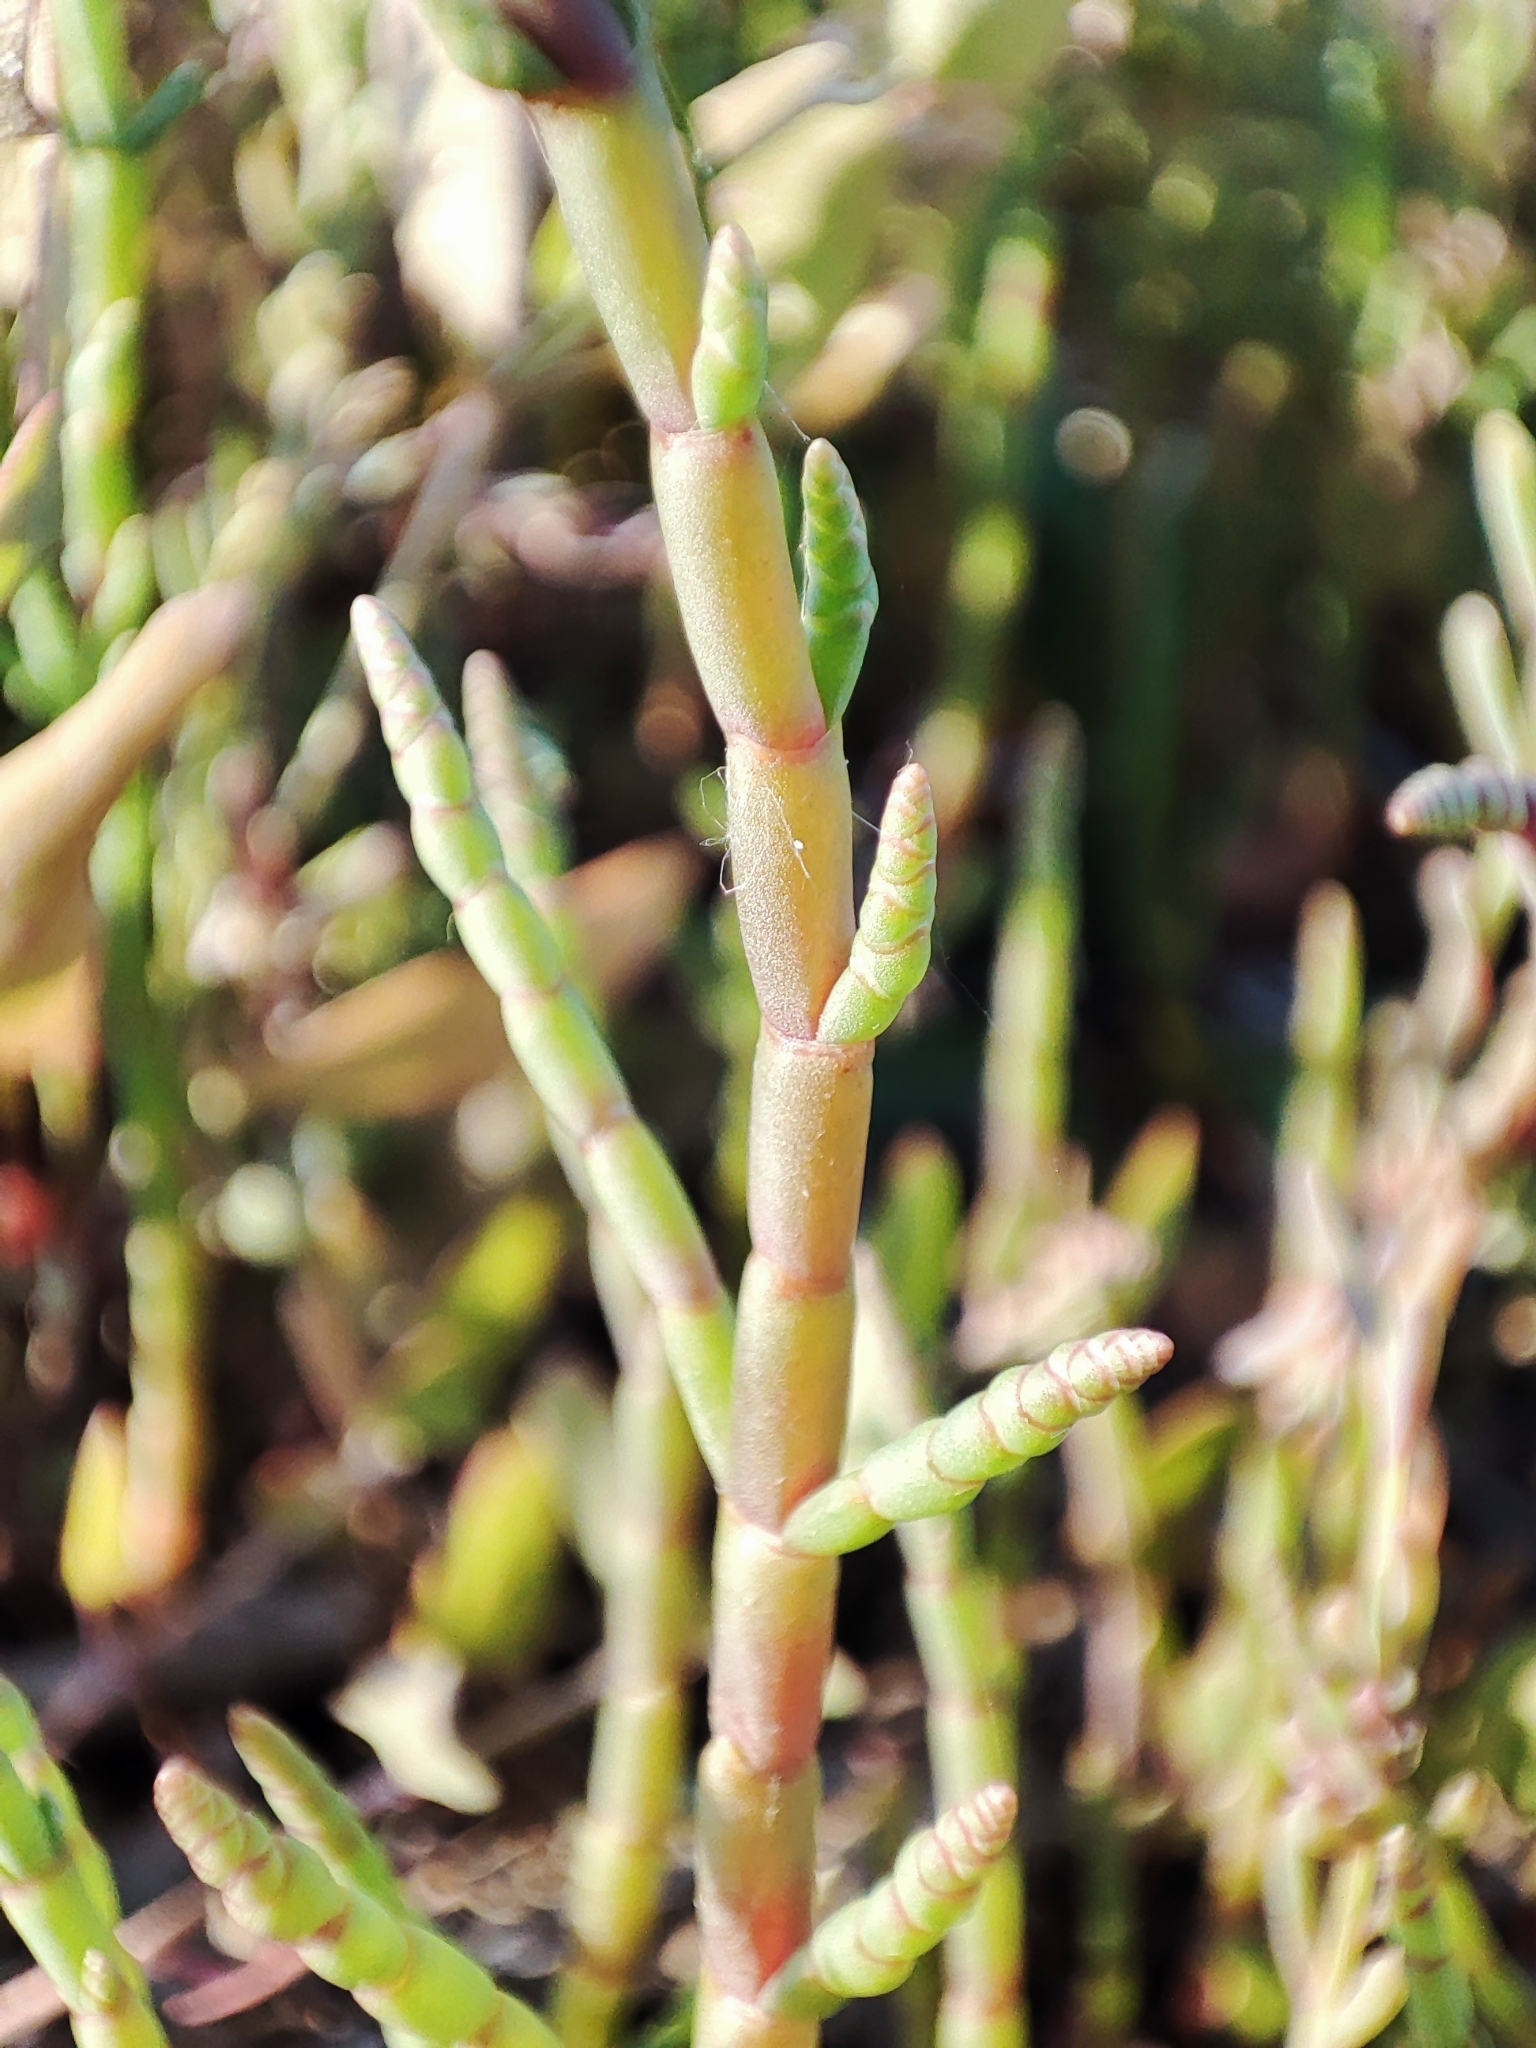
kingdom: Plantae
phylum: Tracheophyta
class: Magnoliopsida
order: Caryophyllales
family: Amaranthaceae
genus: Salicornia
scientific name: Salicornia perennans
